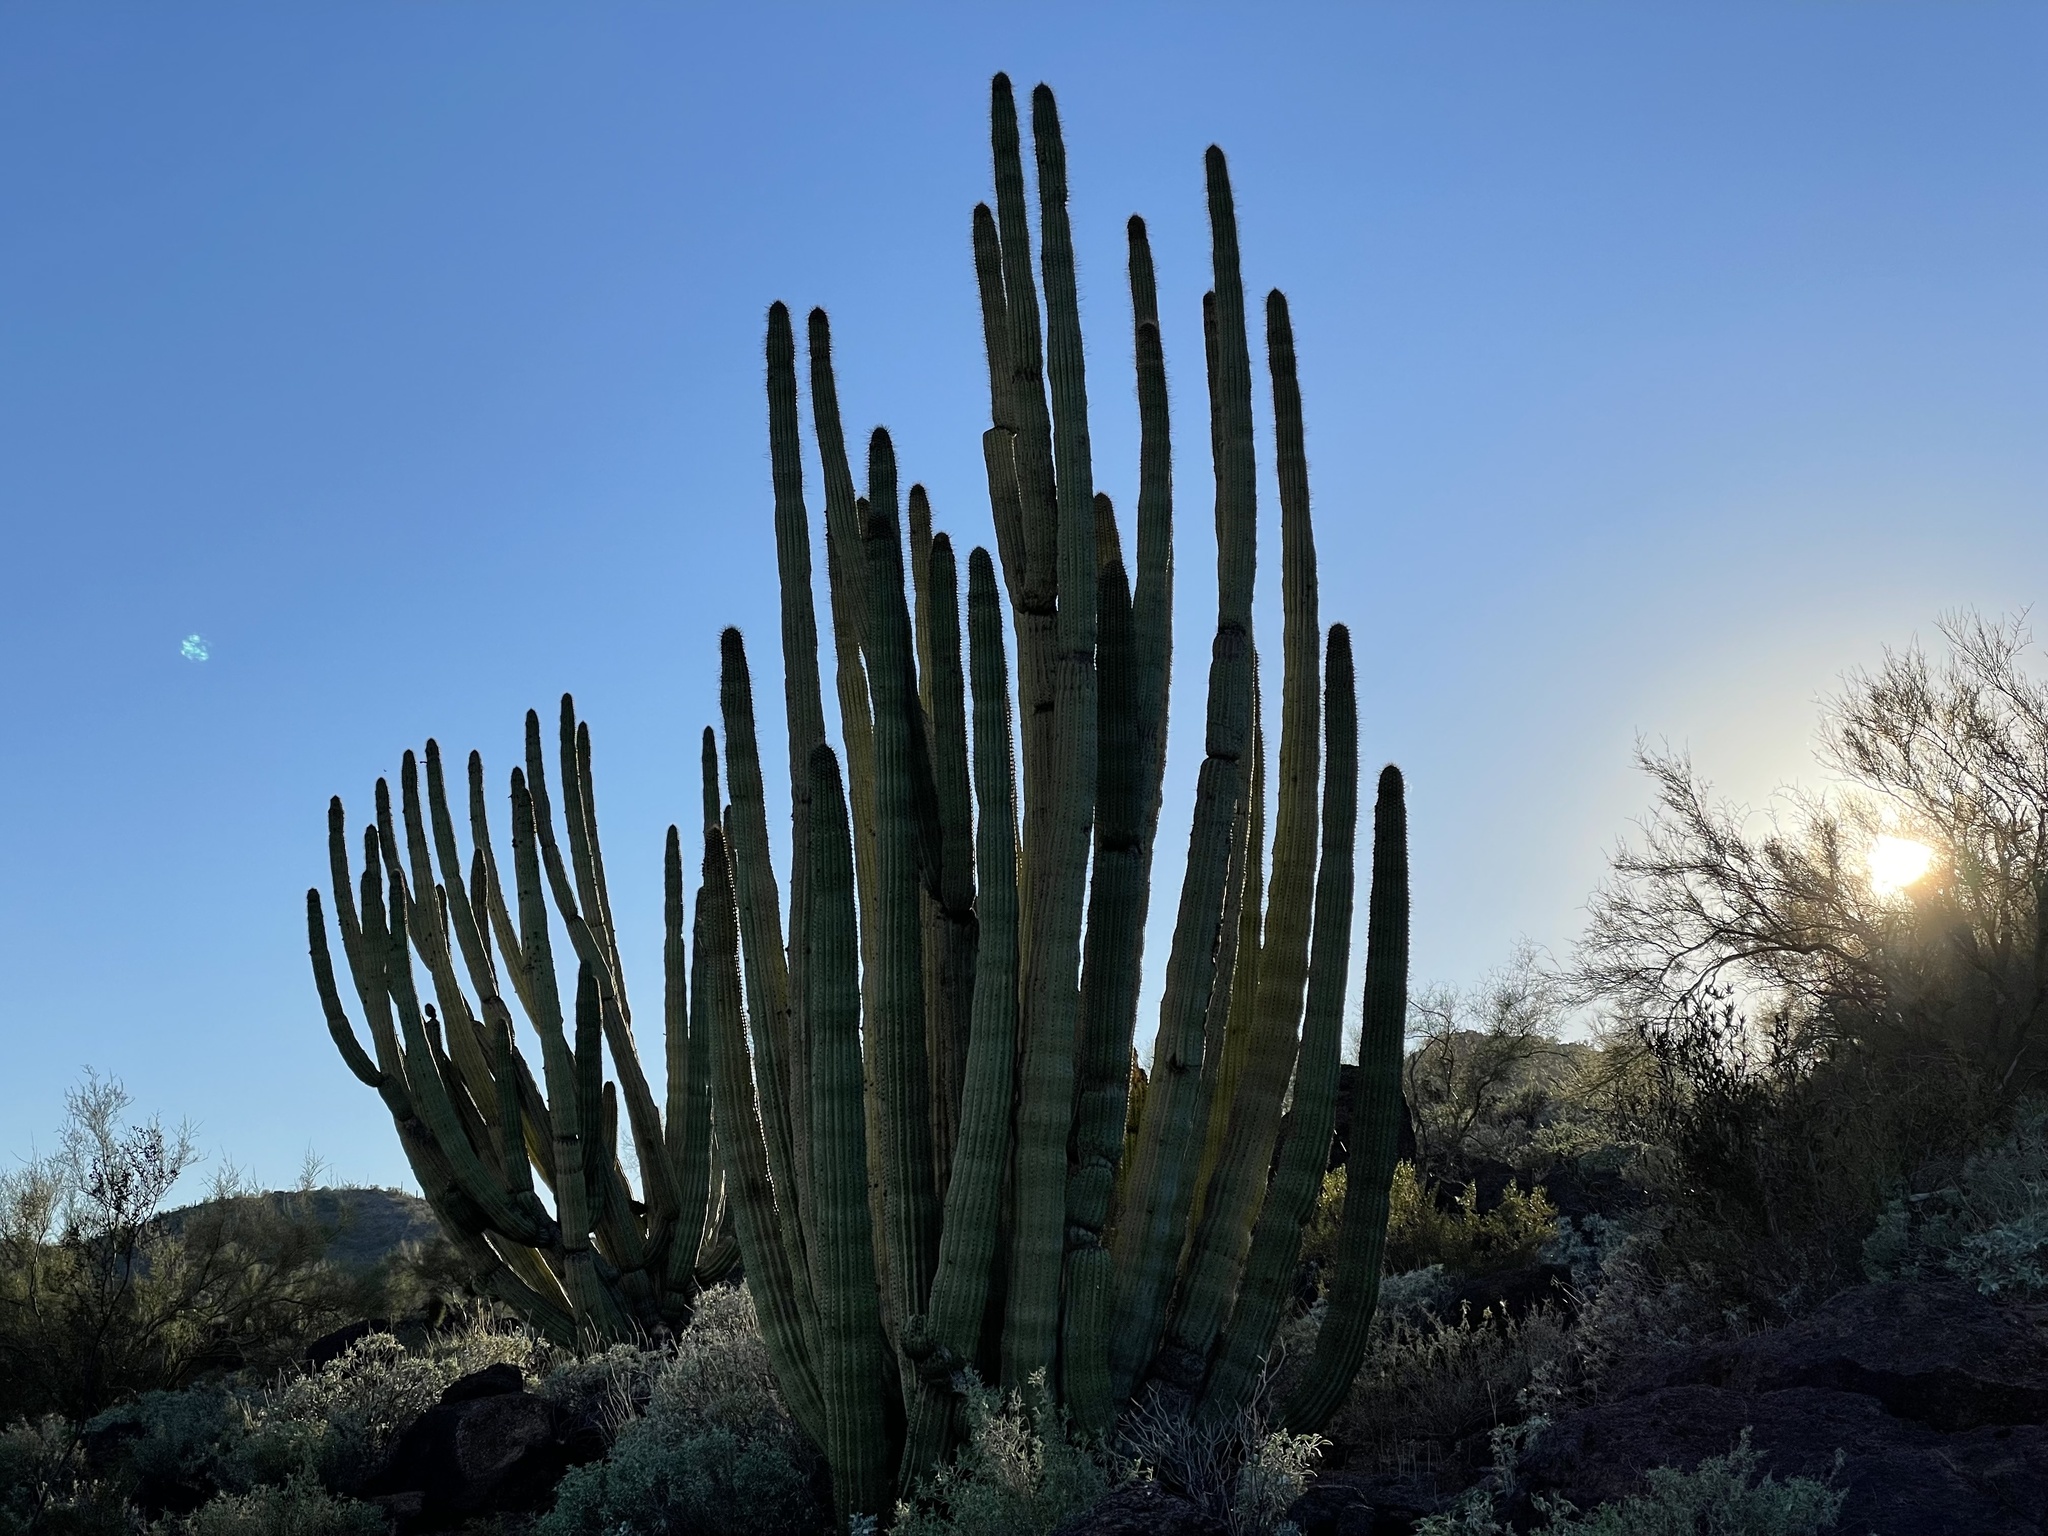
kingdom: Plantae
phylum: Tracheophyta
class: Magnoliopsida
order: Caryophyllales
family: Cactaceae
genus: Stenocereus
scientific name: Stenocereus thurberi
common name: Organ pipe cactus
